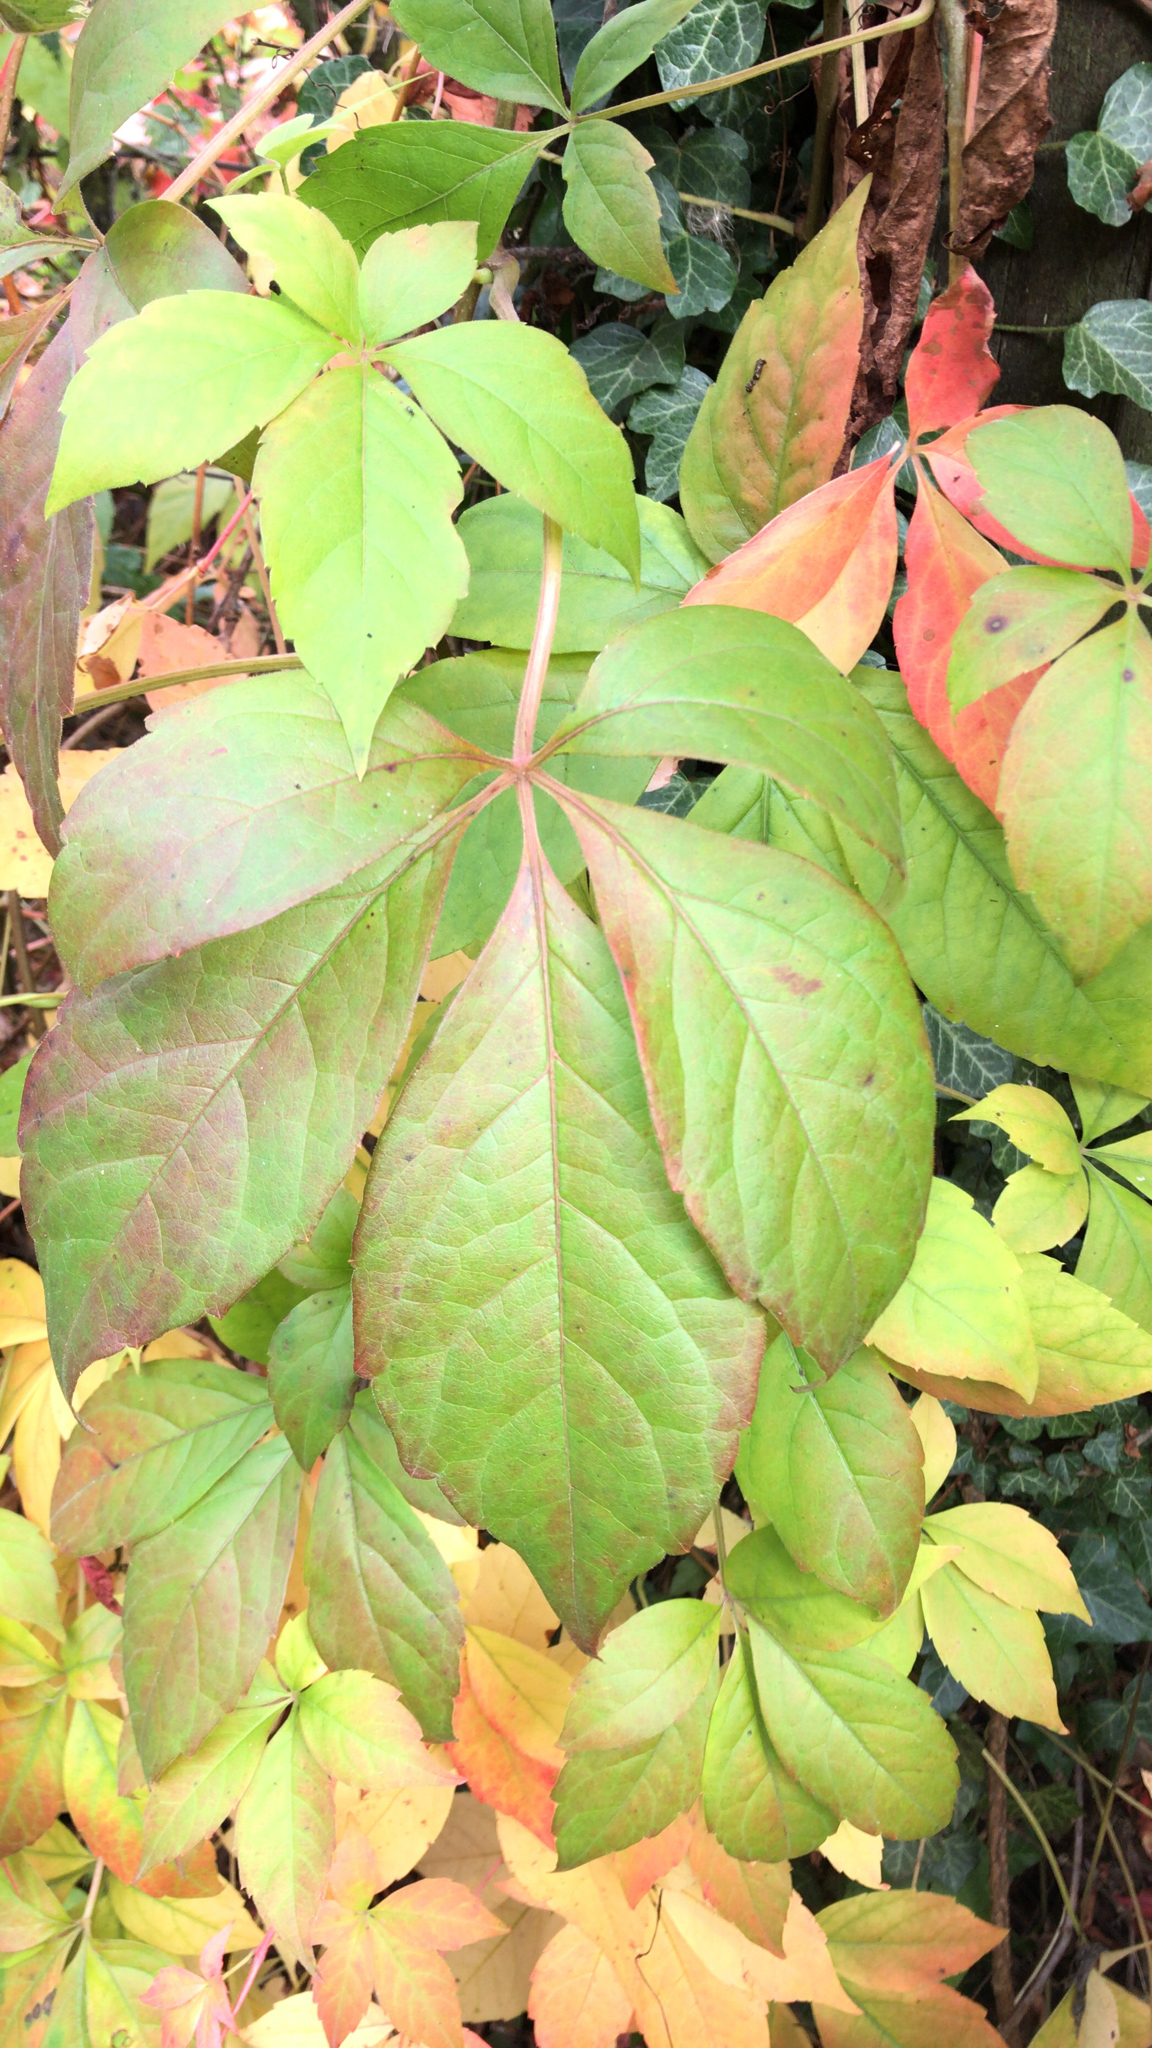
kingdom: Plantae
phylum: Tracheophyta
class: Magnoliopsida
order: Vitales
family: Vitaceae
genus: Parthenocissus
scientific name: Parthenocissus quinquefolia
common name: Virginia-creeper
